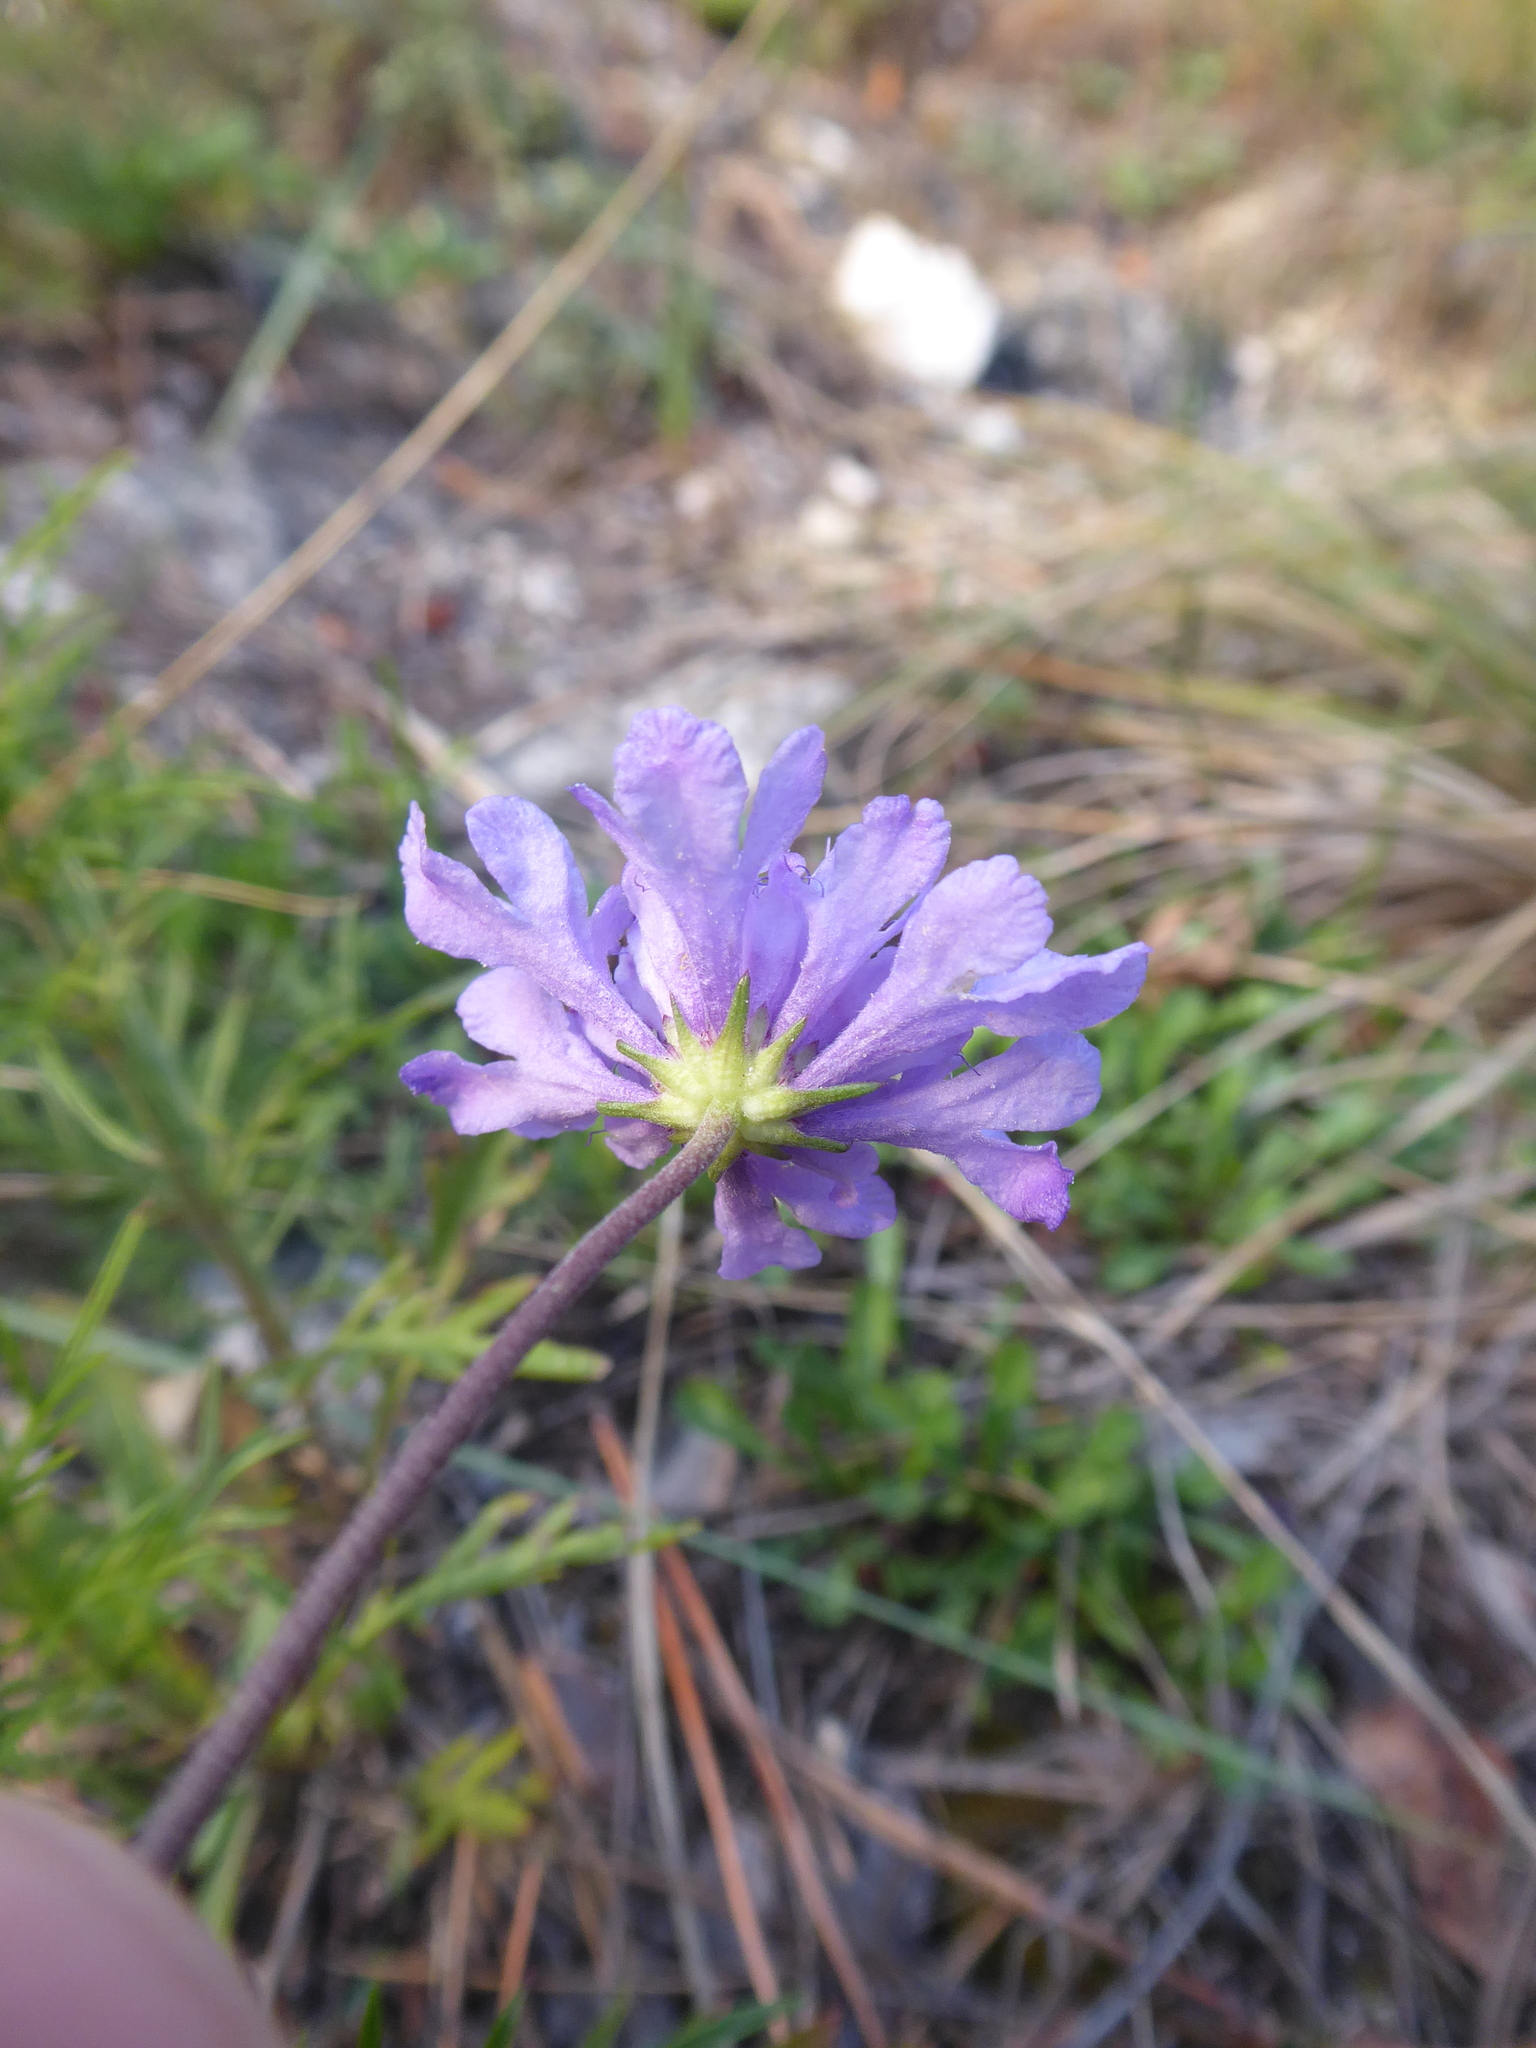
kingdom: Plantae
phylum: Tracheophyta
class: Magnoliopsida
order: Dipsacales
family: Caprifoliaceae
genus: Scabiosa
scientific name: Scabiosa canescens
